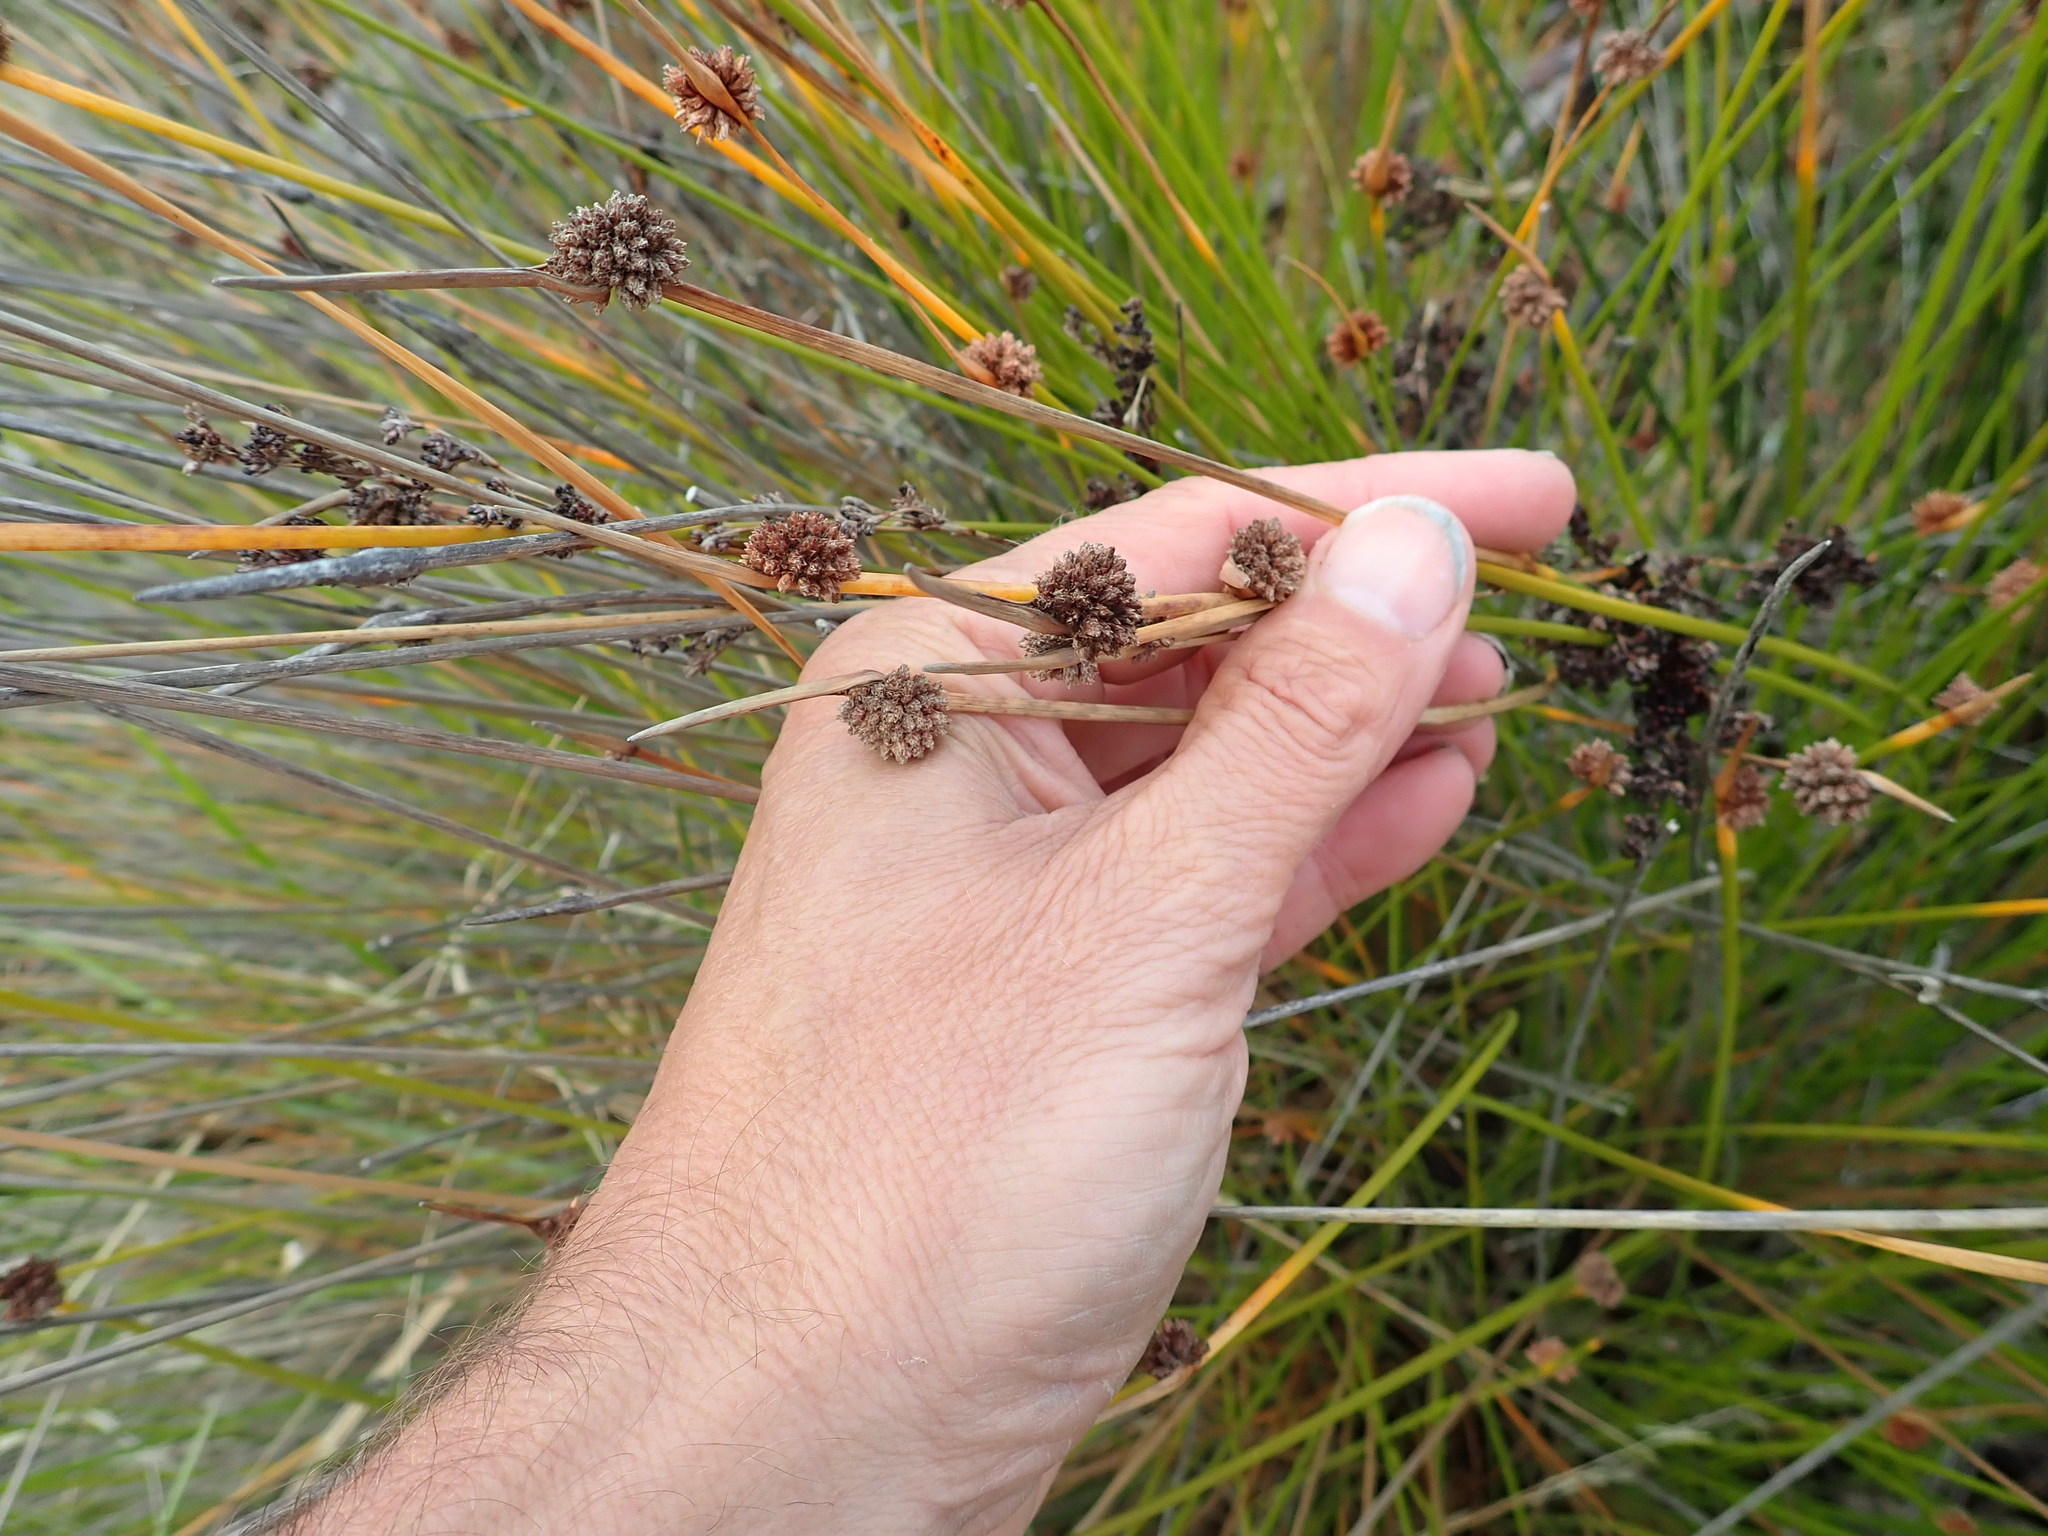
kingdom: Plantae
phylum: Tracheophyta
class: Liliopsida
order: Poales
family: Cyperaceae
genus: Ficinia
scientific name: Ficinia nodosa
